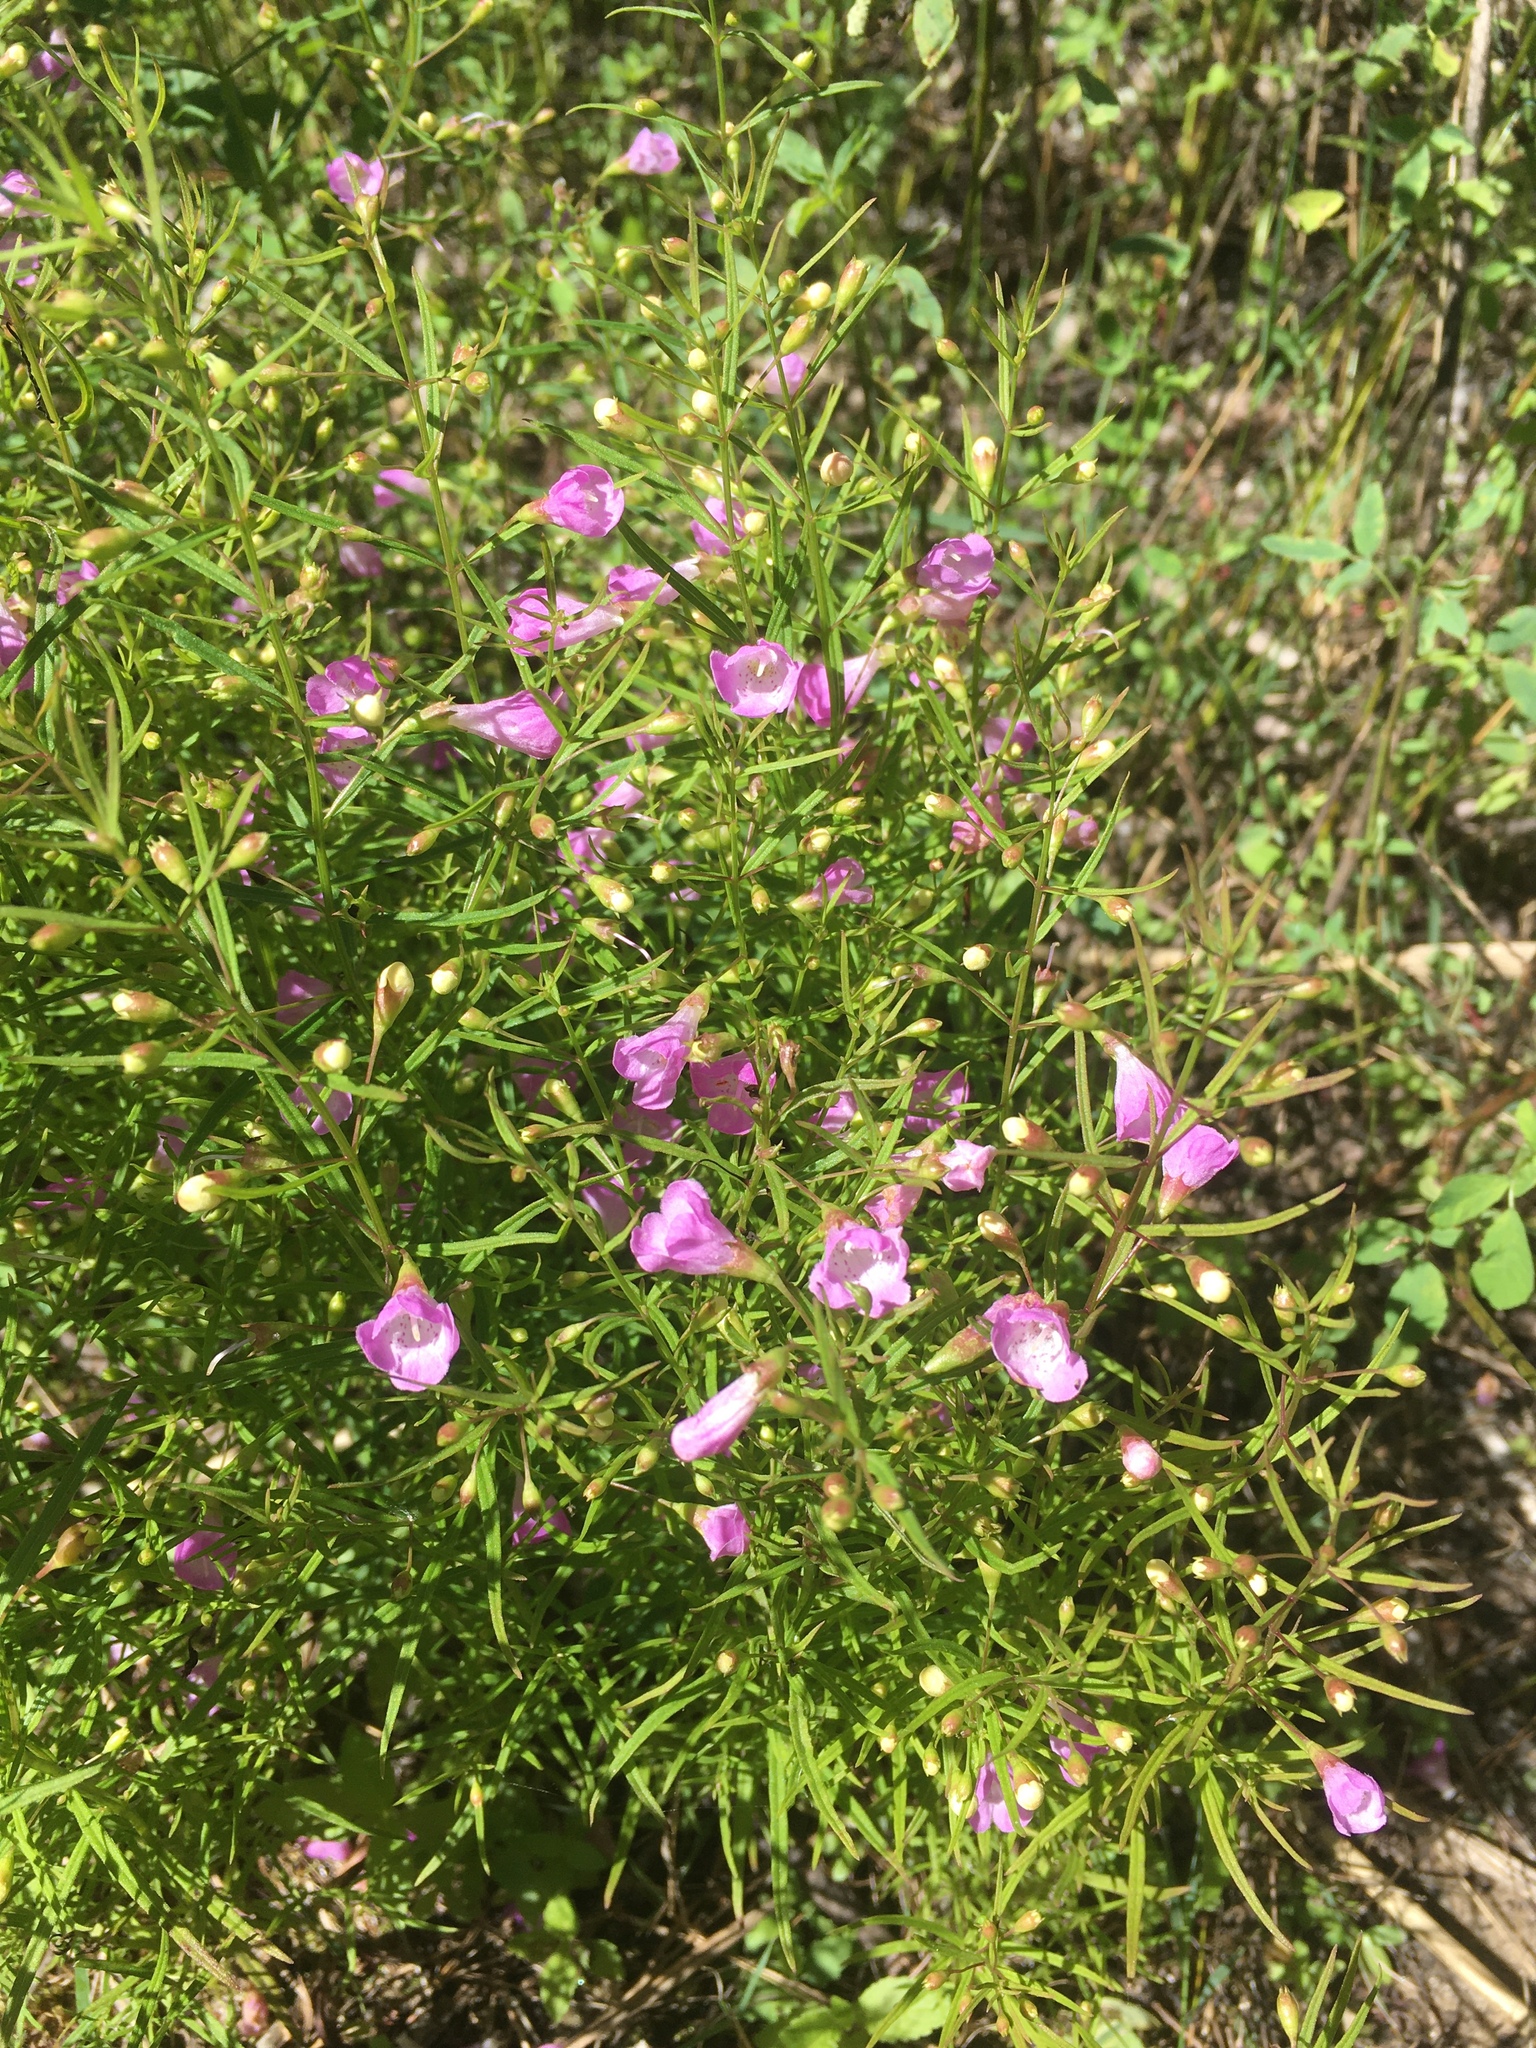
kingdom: Plantae
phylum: Tracheophyta
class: Magnoliopsida
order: Lamiales
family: Orobanchaceae
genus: Agalinis
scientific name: Agalinis tenuifolia
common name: Slender agalinis
